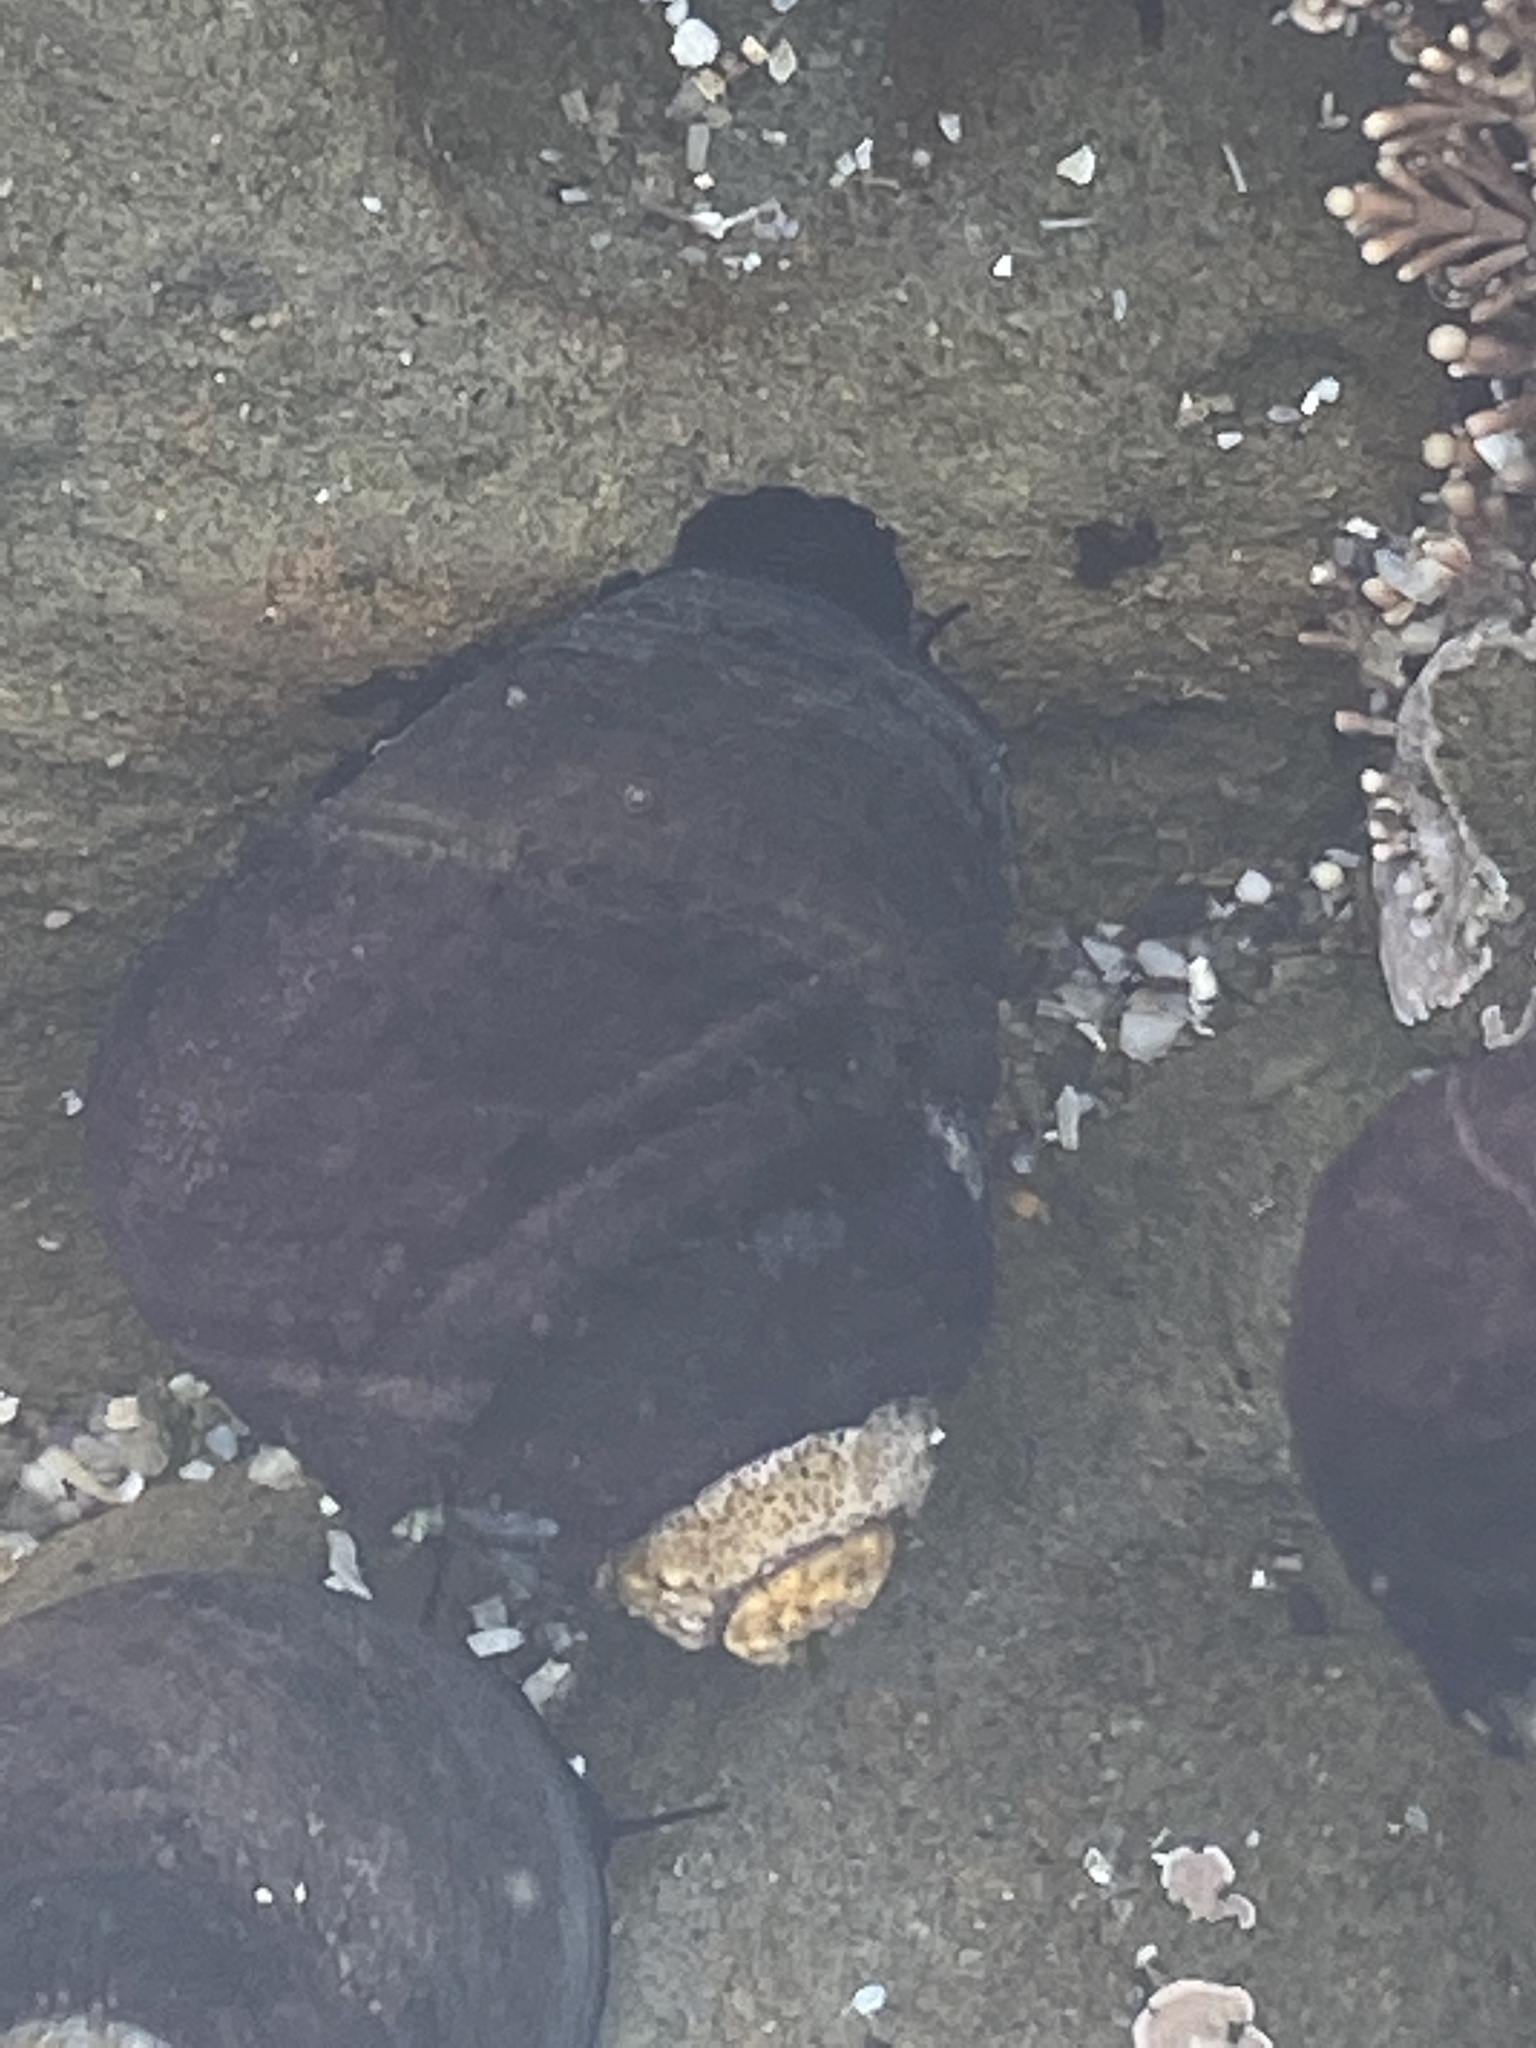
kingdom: Animalia
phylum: Mollusca
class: Gastropoda
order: Trochida
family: Tegulidae
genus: Tegula
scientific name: Tegula funebralis
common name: Black tegula
